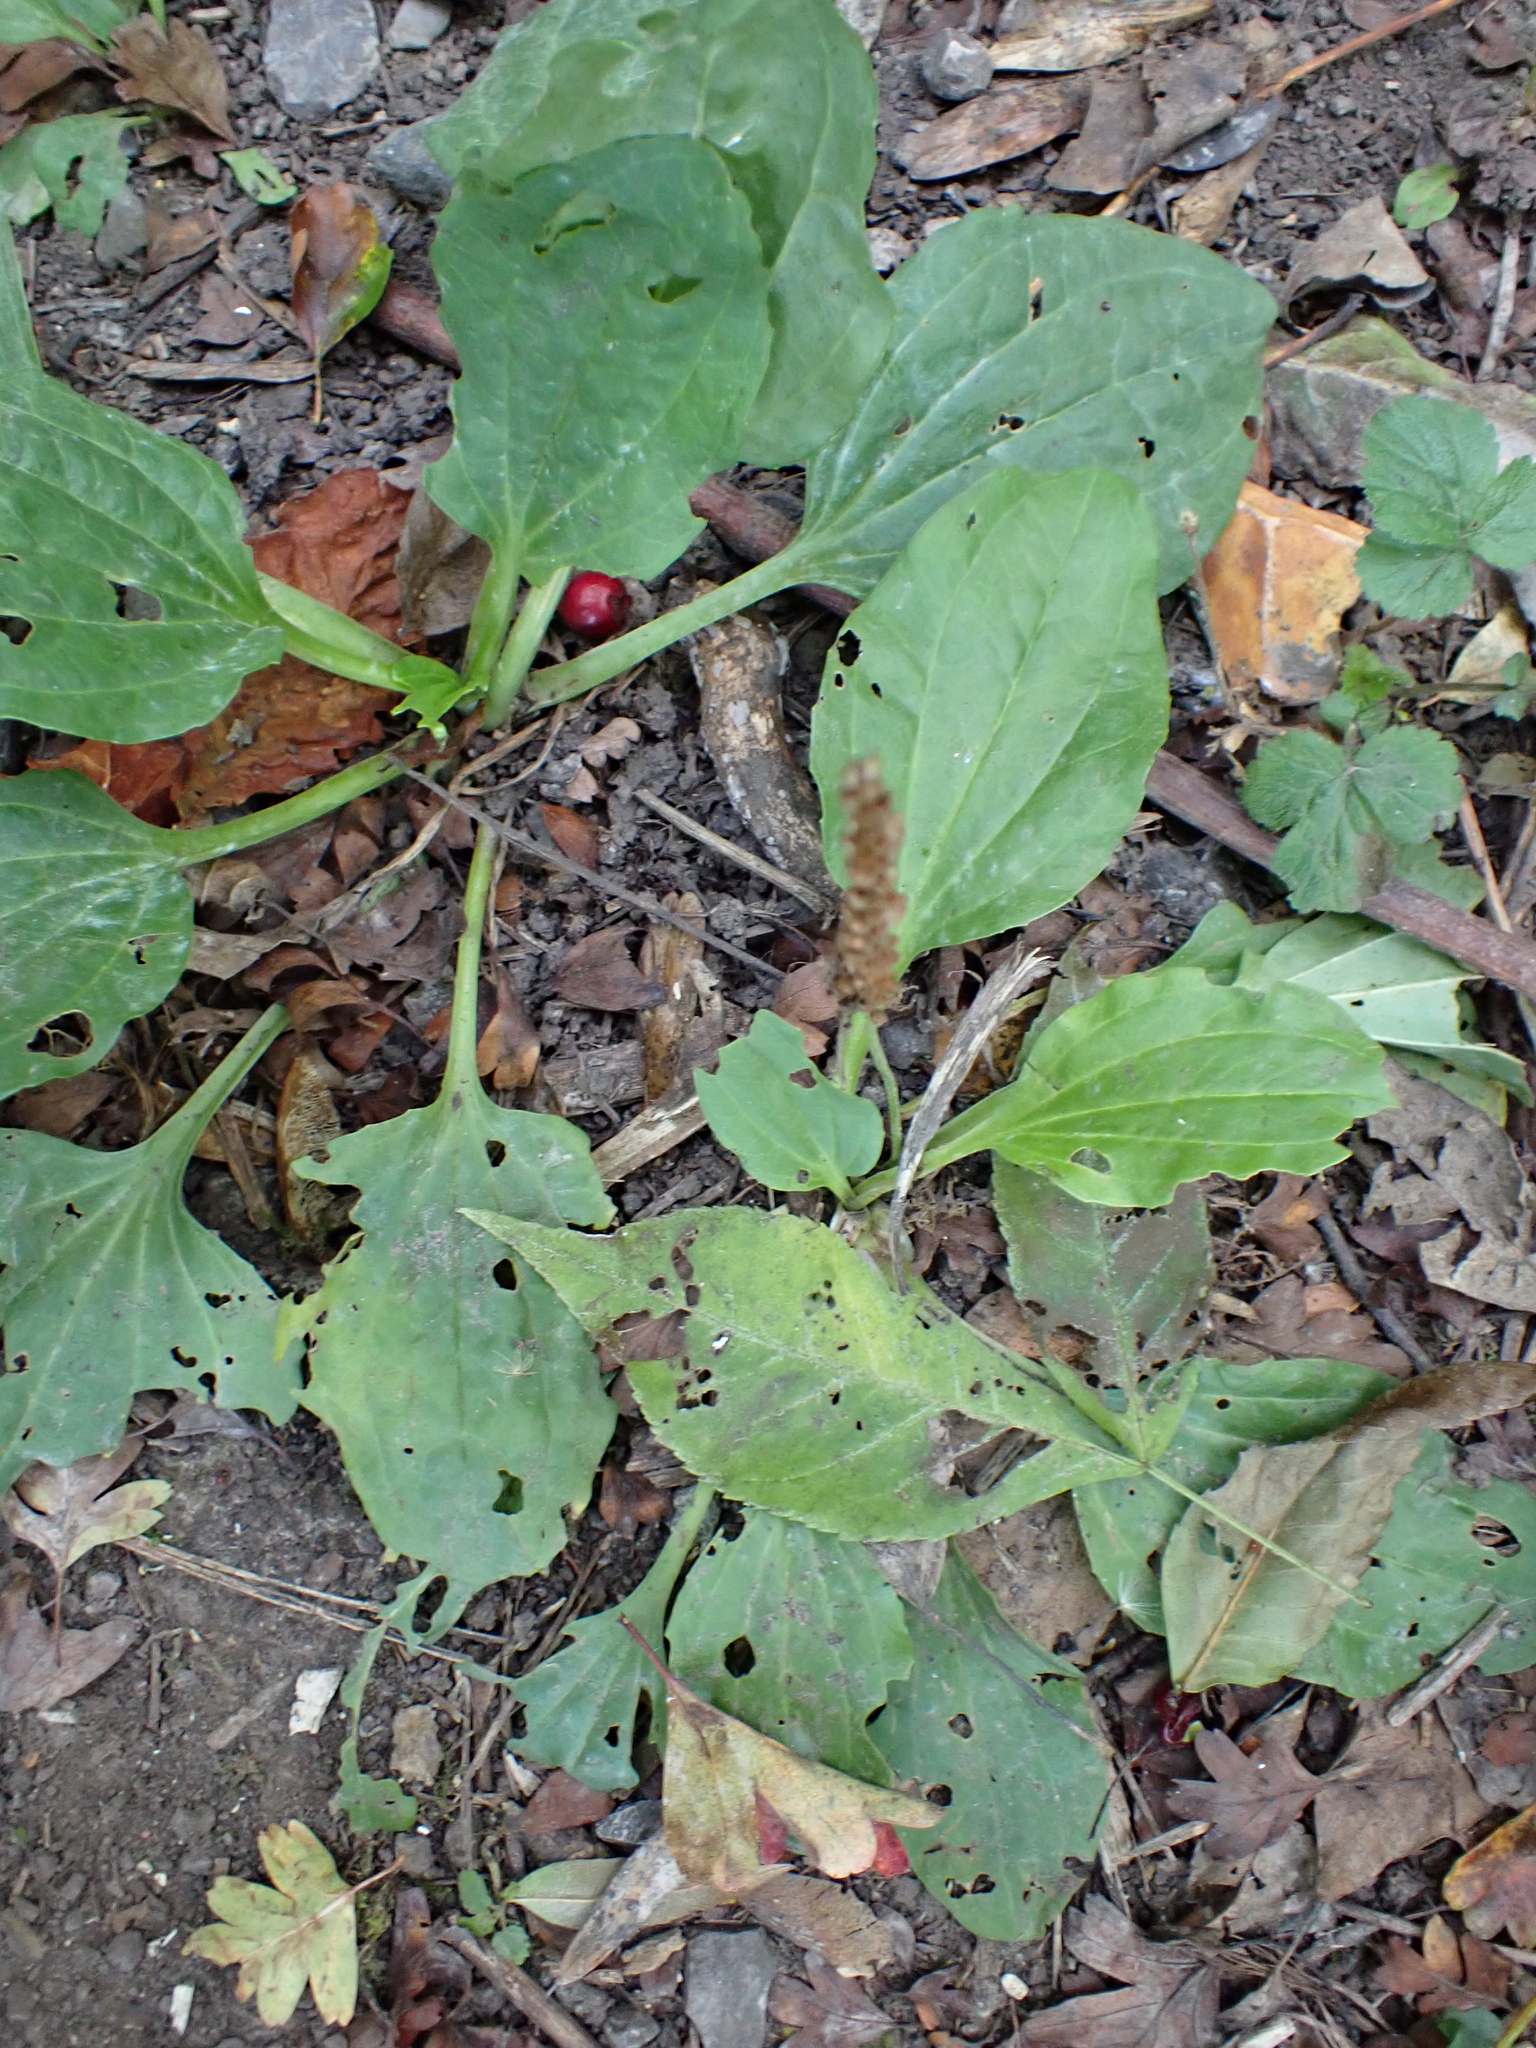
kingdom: Plantae
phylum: Tracheophyta
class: Magnoliopsida
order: Lamiales
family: Plantaginaceae
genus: Plantago
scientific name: Plantago major
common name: Common plantain
